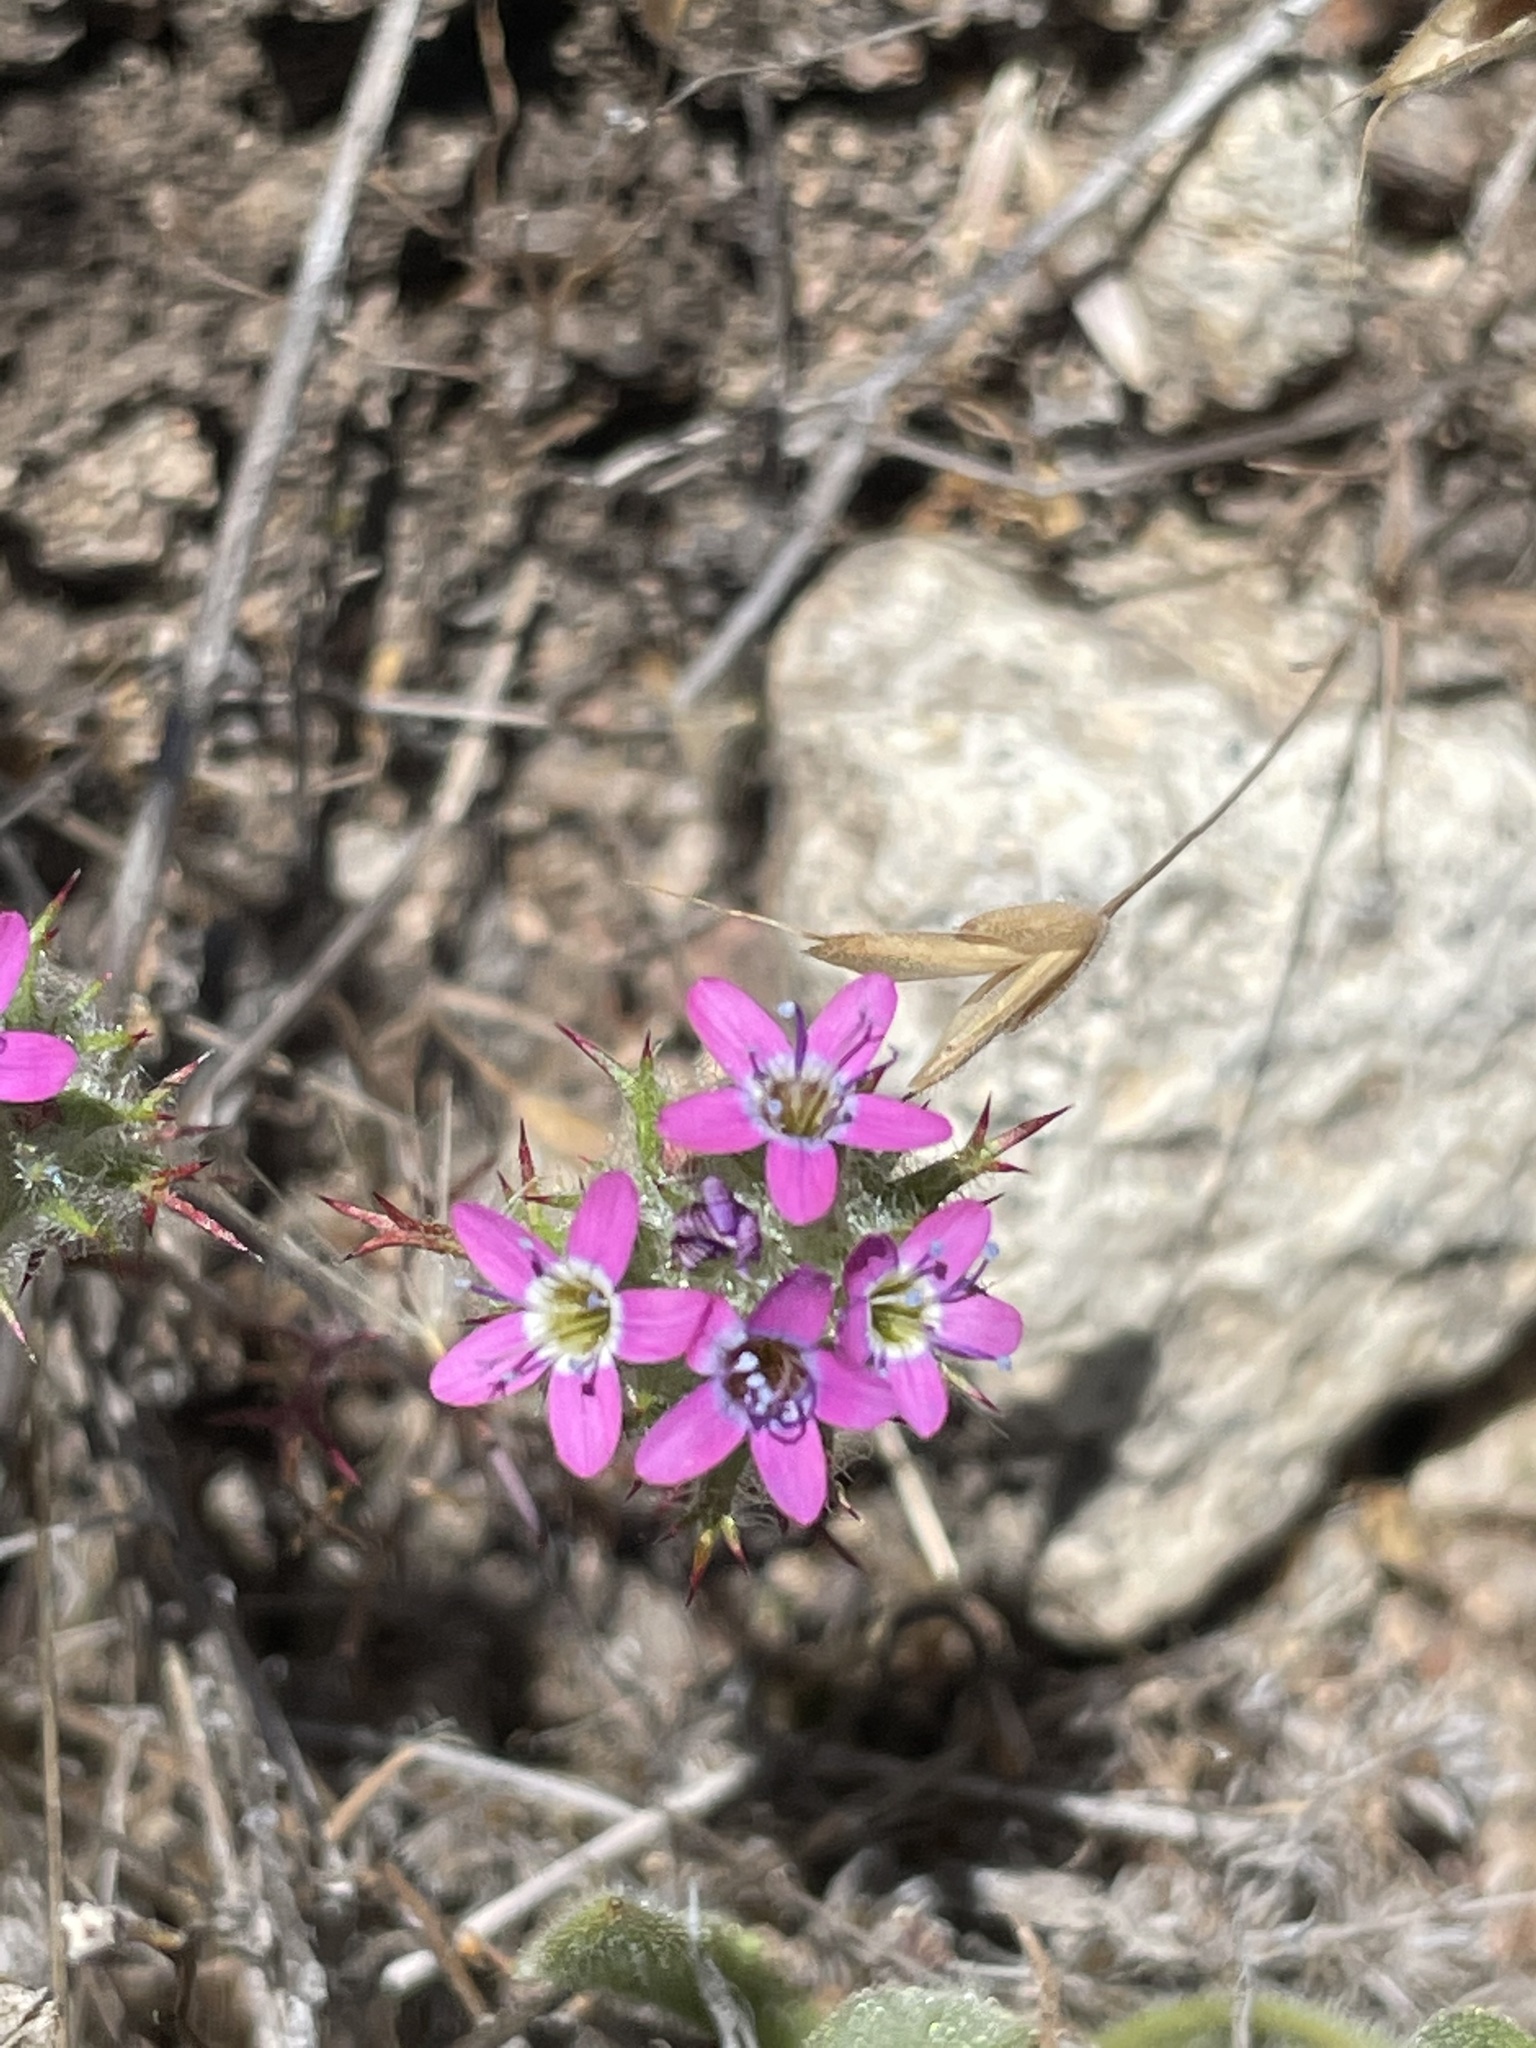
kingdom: Plantae
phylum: Tracheophyta
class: Magnoliopsida
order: Ericales
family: Polemoniaceae
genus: Navarretia
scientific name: Navarretia hamata
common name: Hooked navarretia
